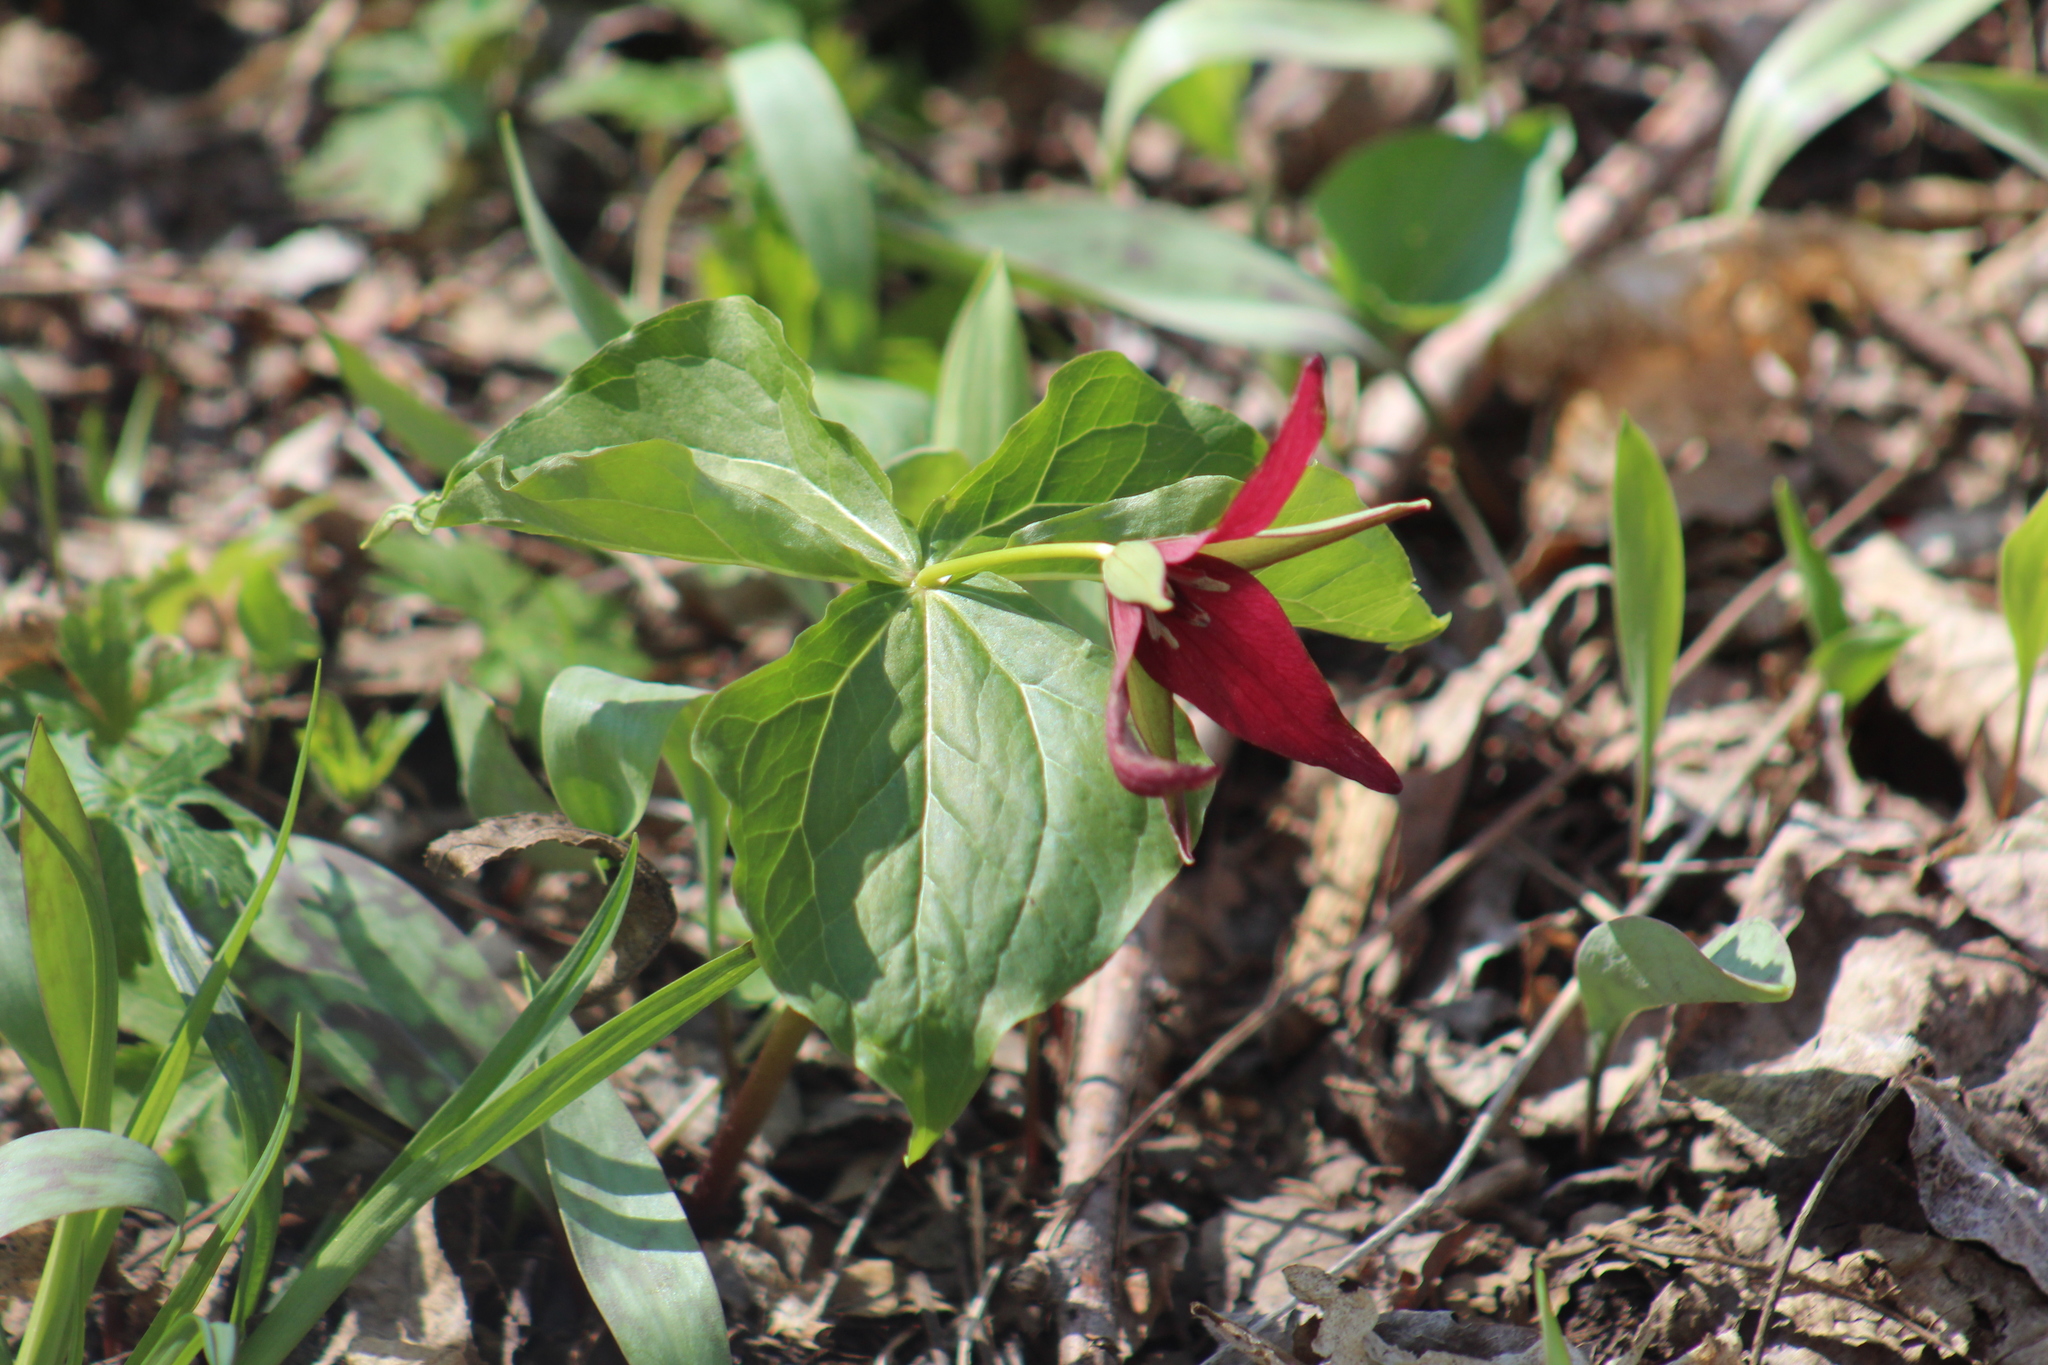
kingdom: Plantae
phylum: Tracheophyta
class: Liliopsida
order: Liliales
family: Melanthiaceae
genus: Trillium
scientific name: Trillium erectum
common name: Purple trillium
